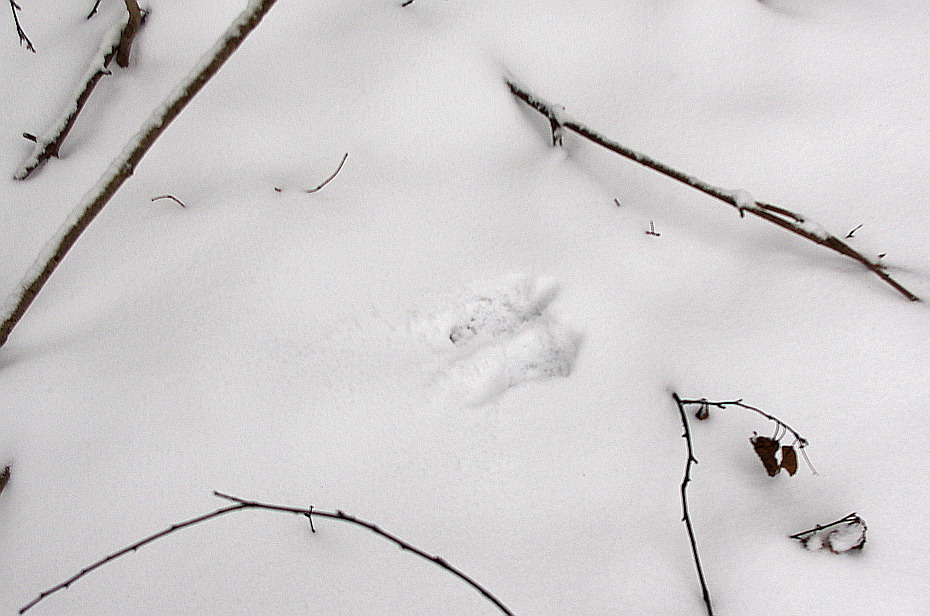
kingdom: Animalia
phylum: Chordata
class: Mammalia
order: Rodentia
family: Sciuridae
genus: Sciurus
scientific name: Sciurus vulgaris
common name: Eurasian red squirrel
